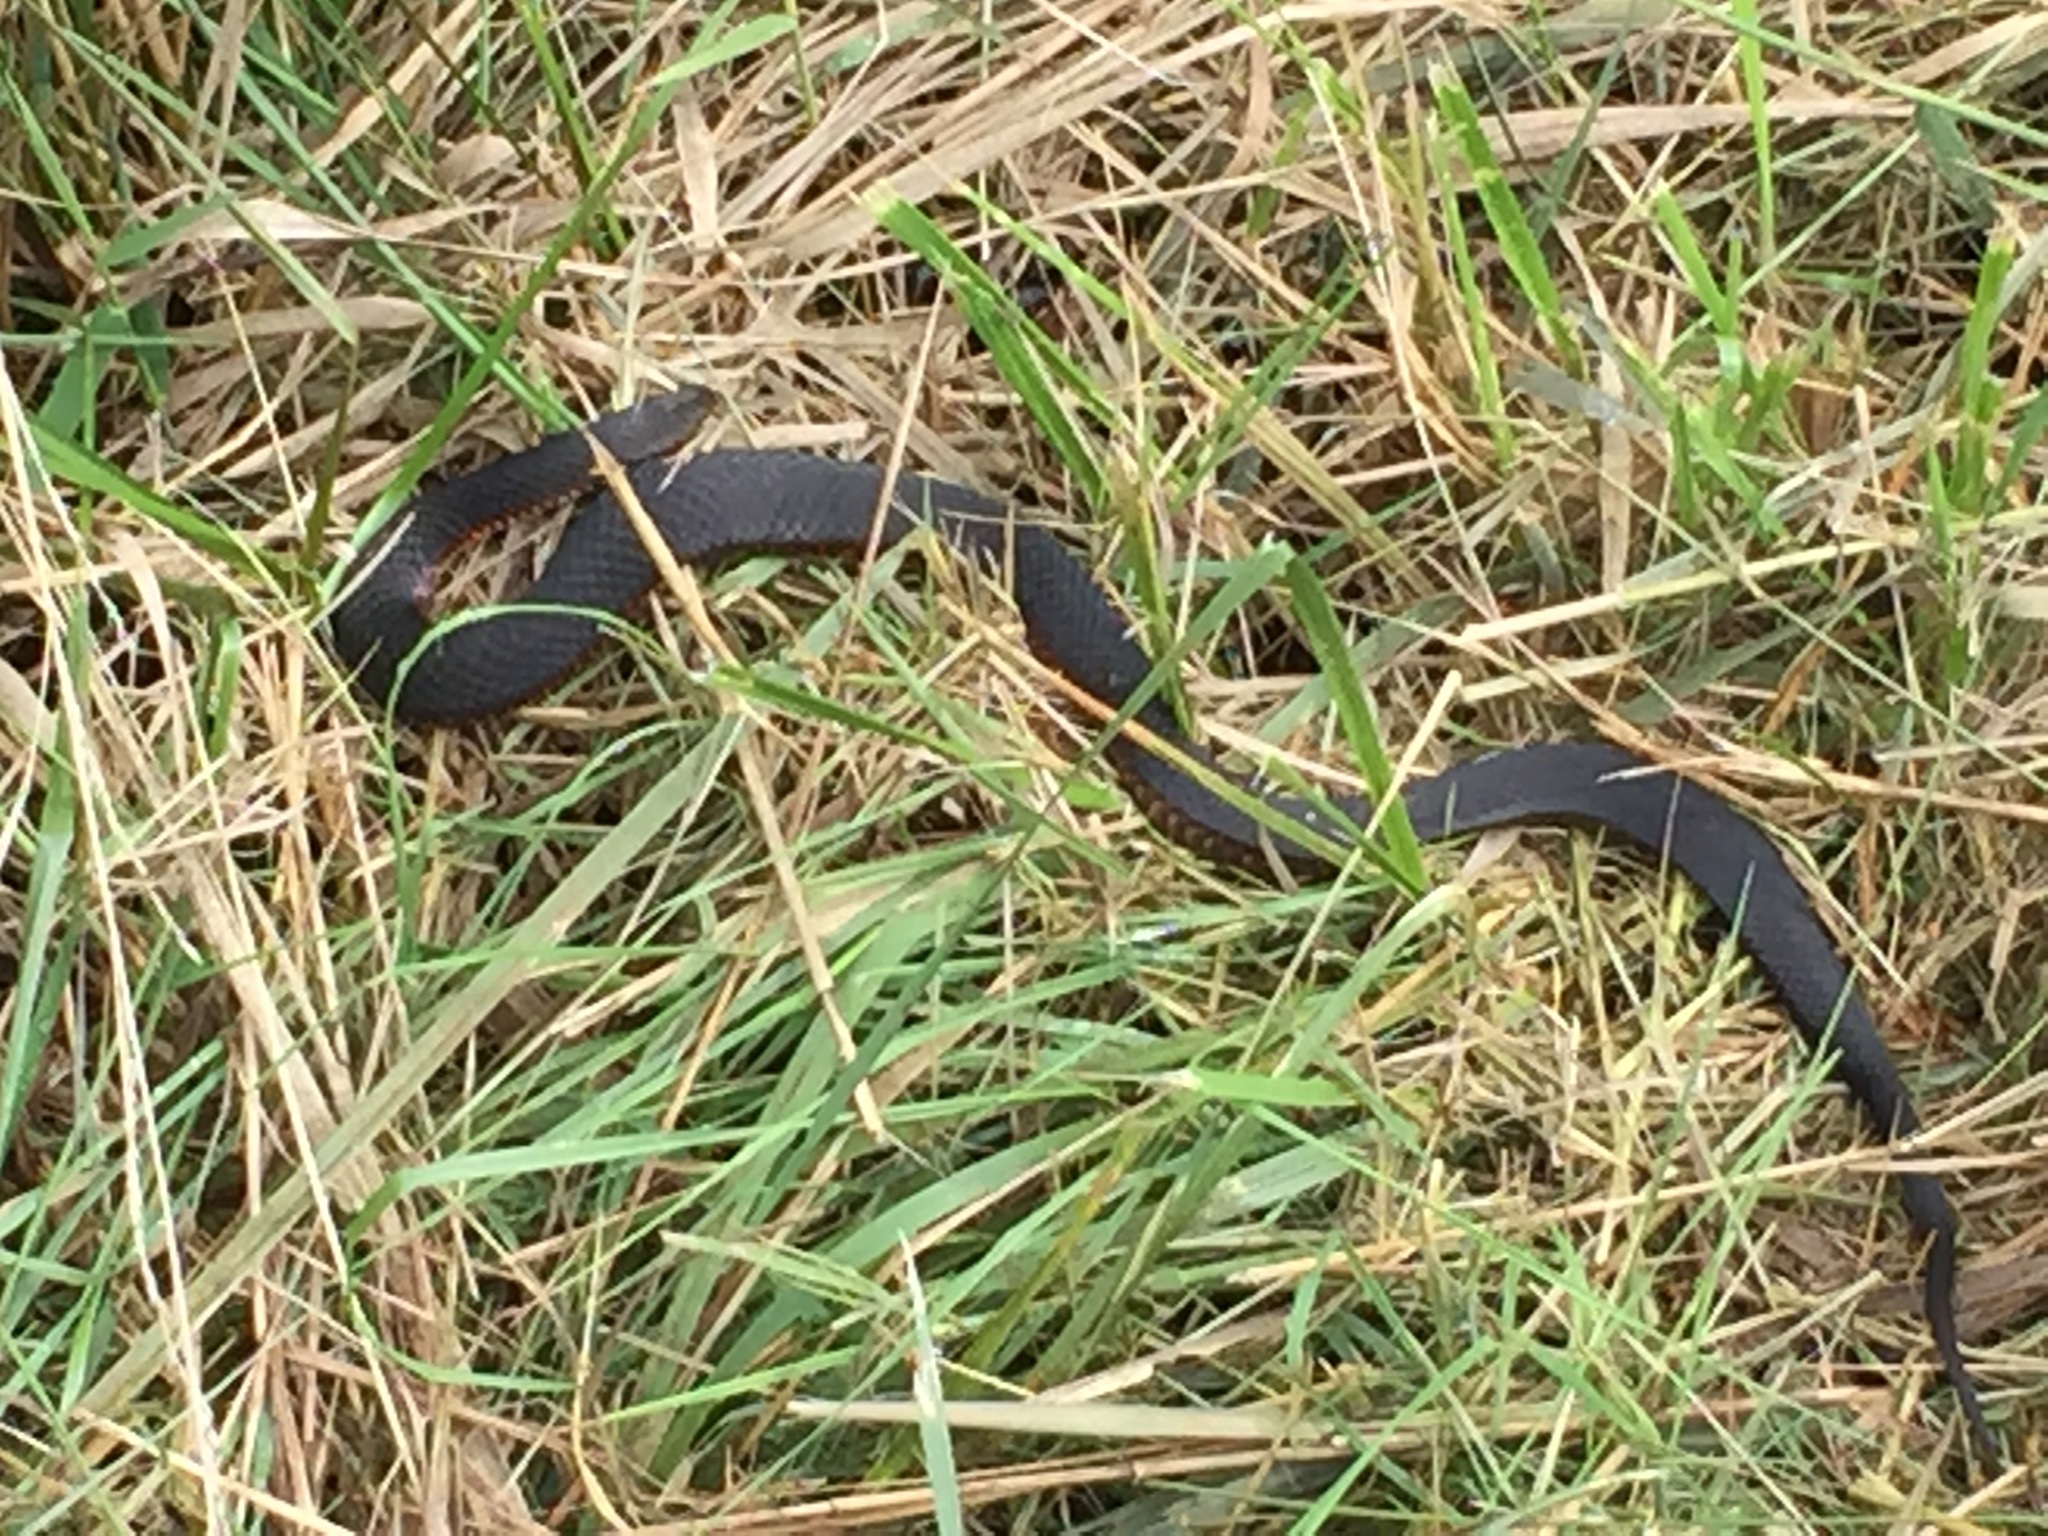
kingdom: Animalia
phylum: Chordata
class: Squamata
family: Elapidae
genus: Austrelaps
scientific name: Austrelaps superbus
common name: Copperhead snake
